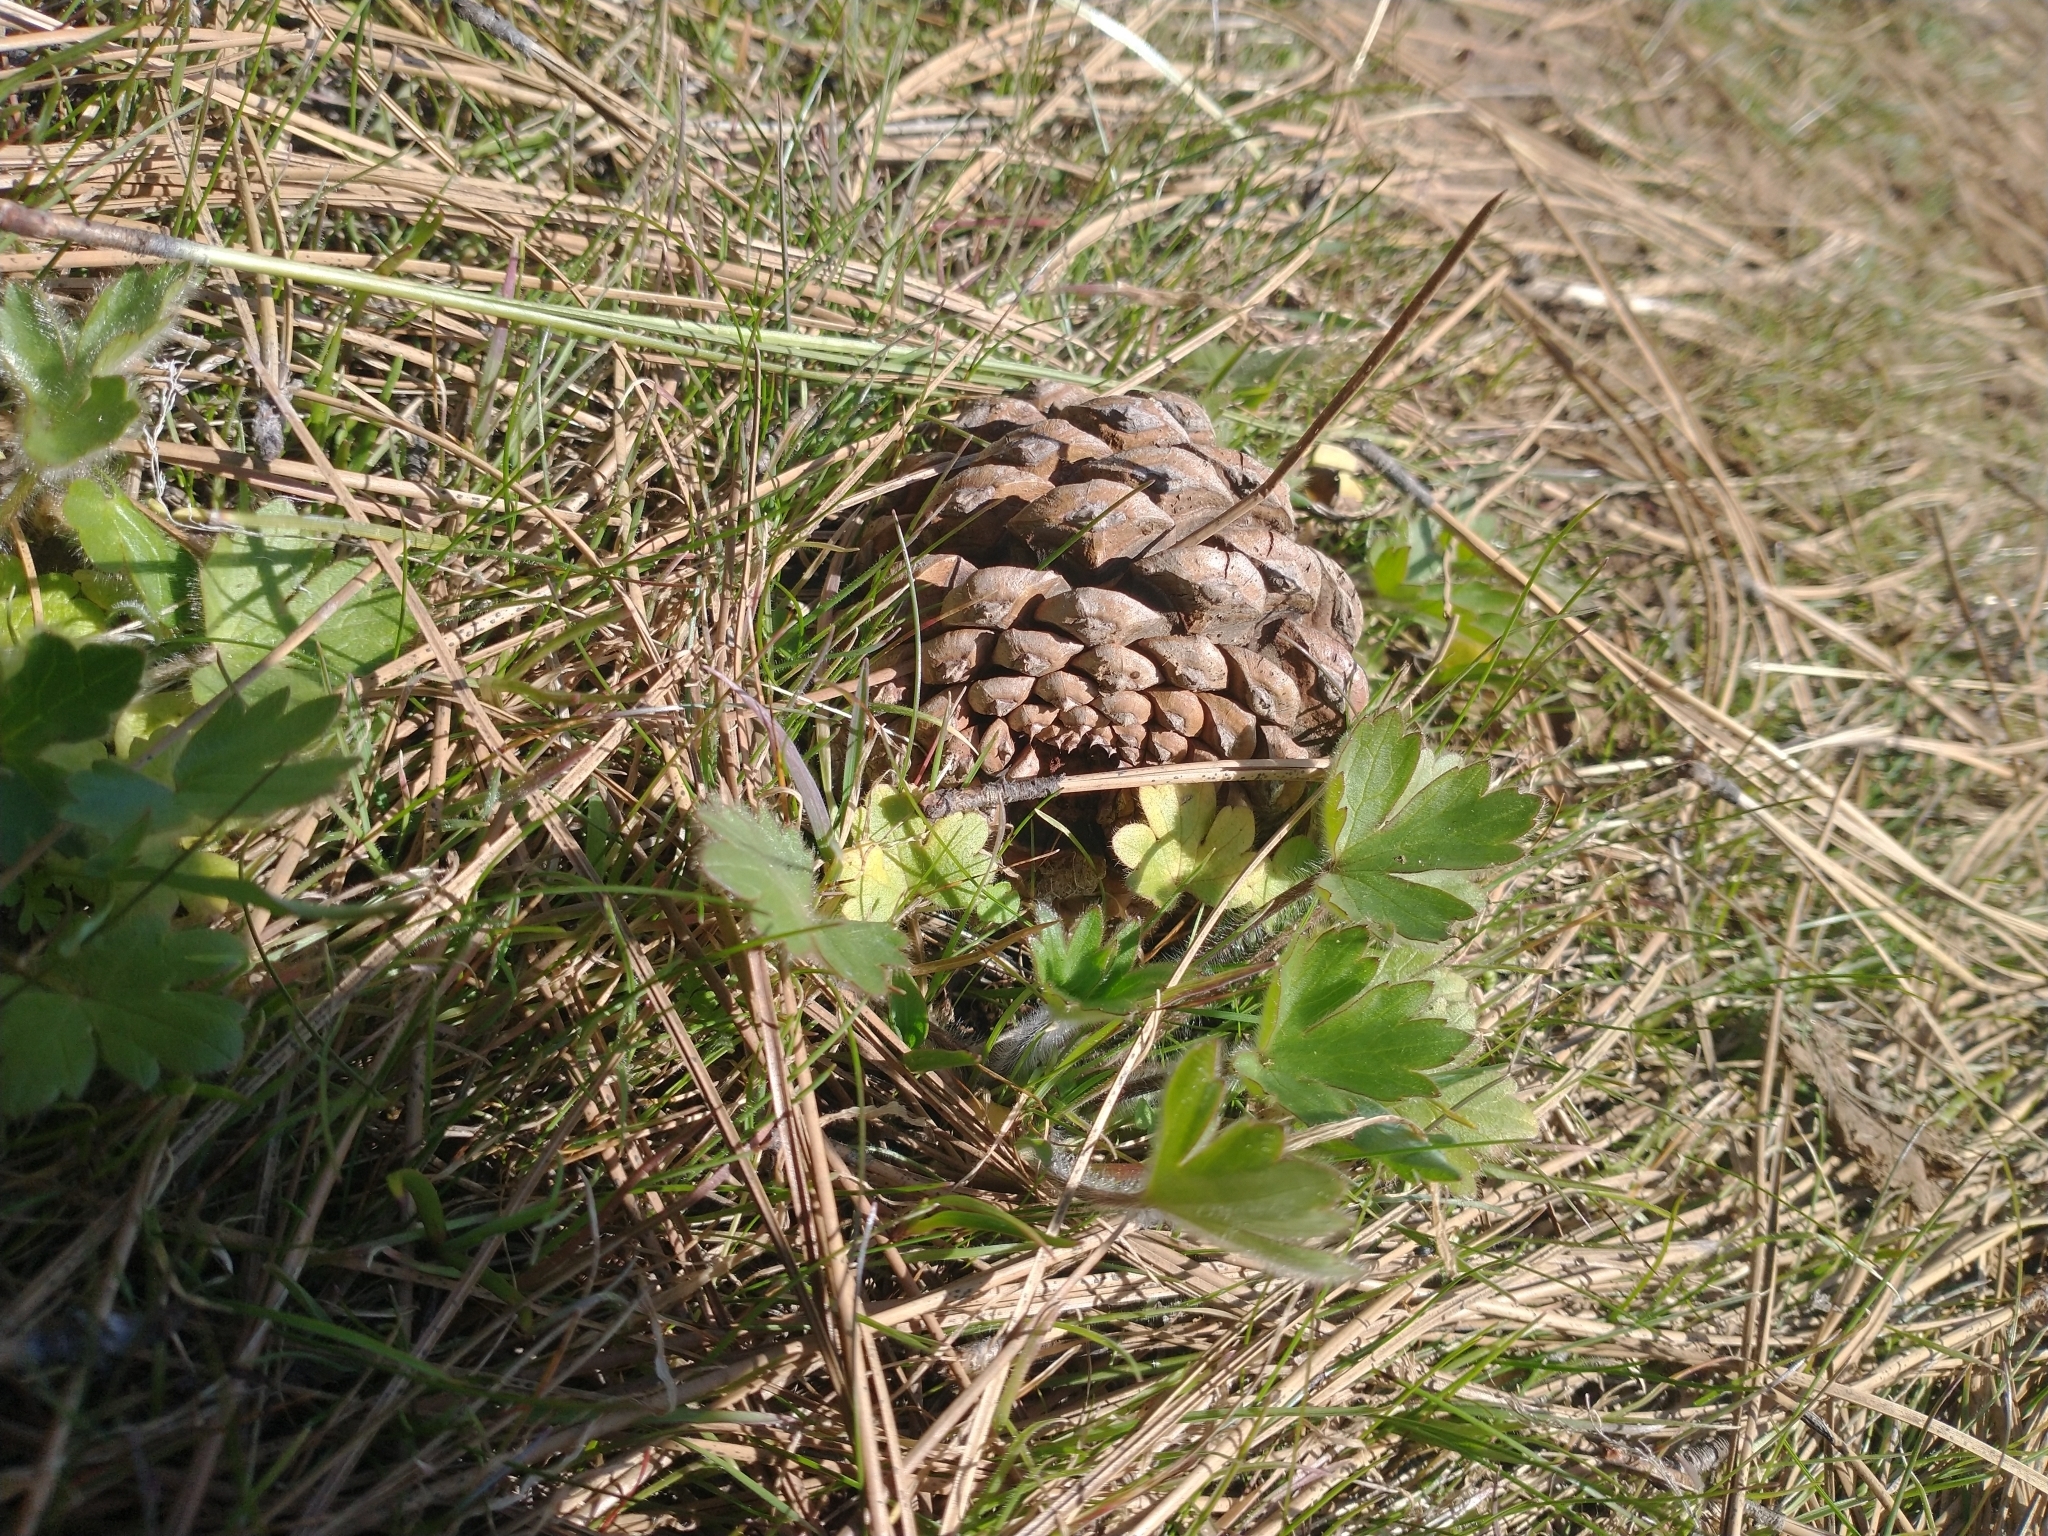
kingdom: Plantae
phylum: Tracheophyta
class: Pinopsida
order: Pinales
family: Pinaceae
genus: Pinus
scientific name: Pinus ponderosa
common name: Western yellow-pine
